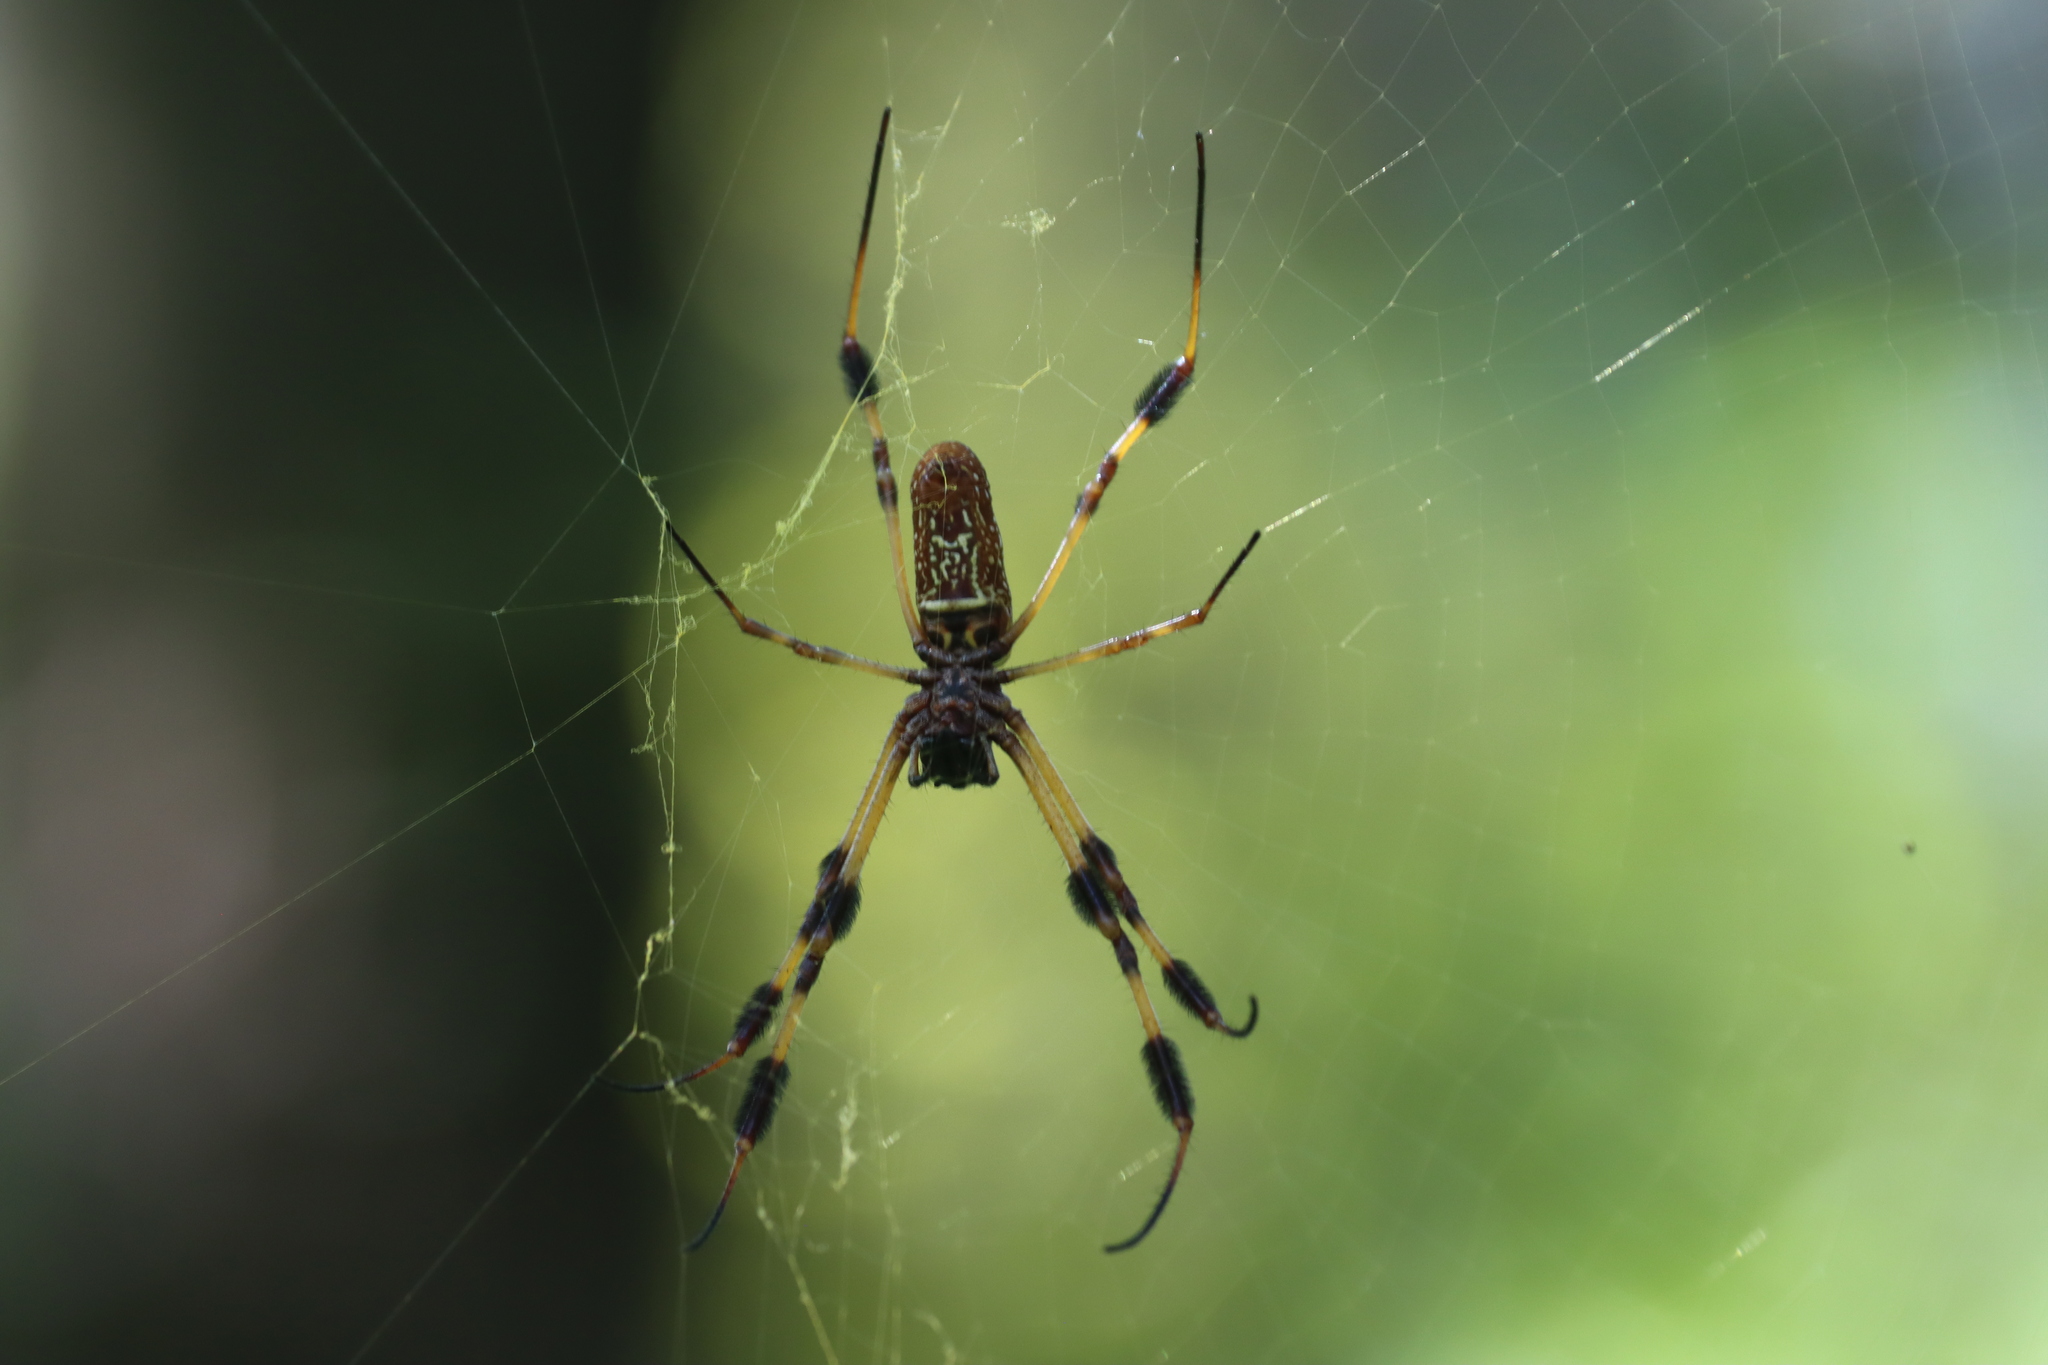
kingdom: Animalia
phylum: Arthropoda
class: Arachnida
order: Araneae
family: Araneidae
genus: Trichonephila
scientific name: Trichonephila clavipes
